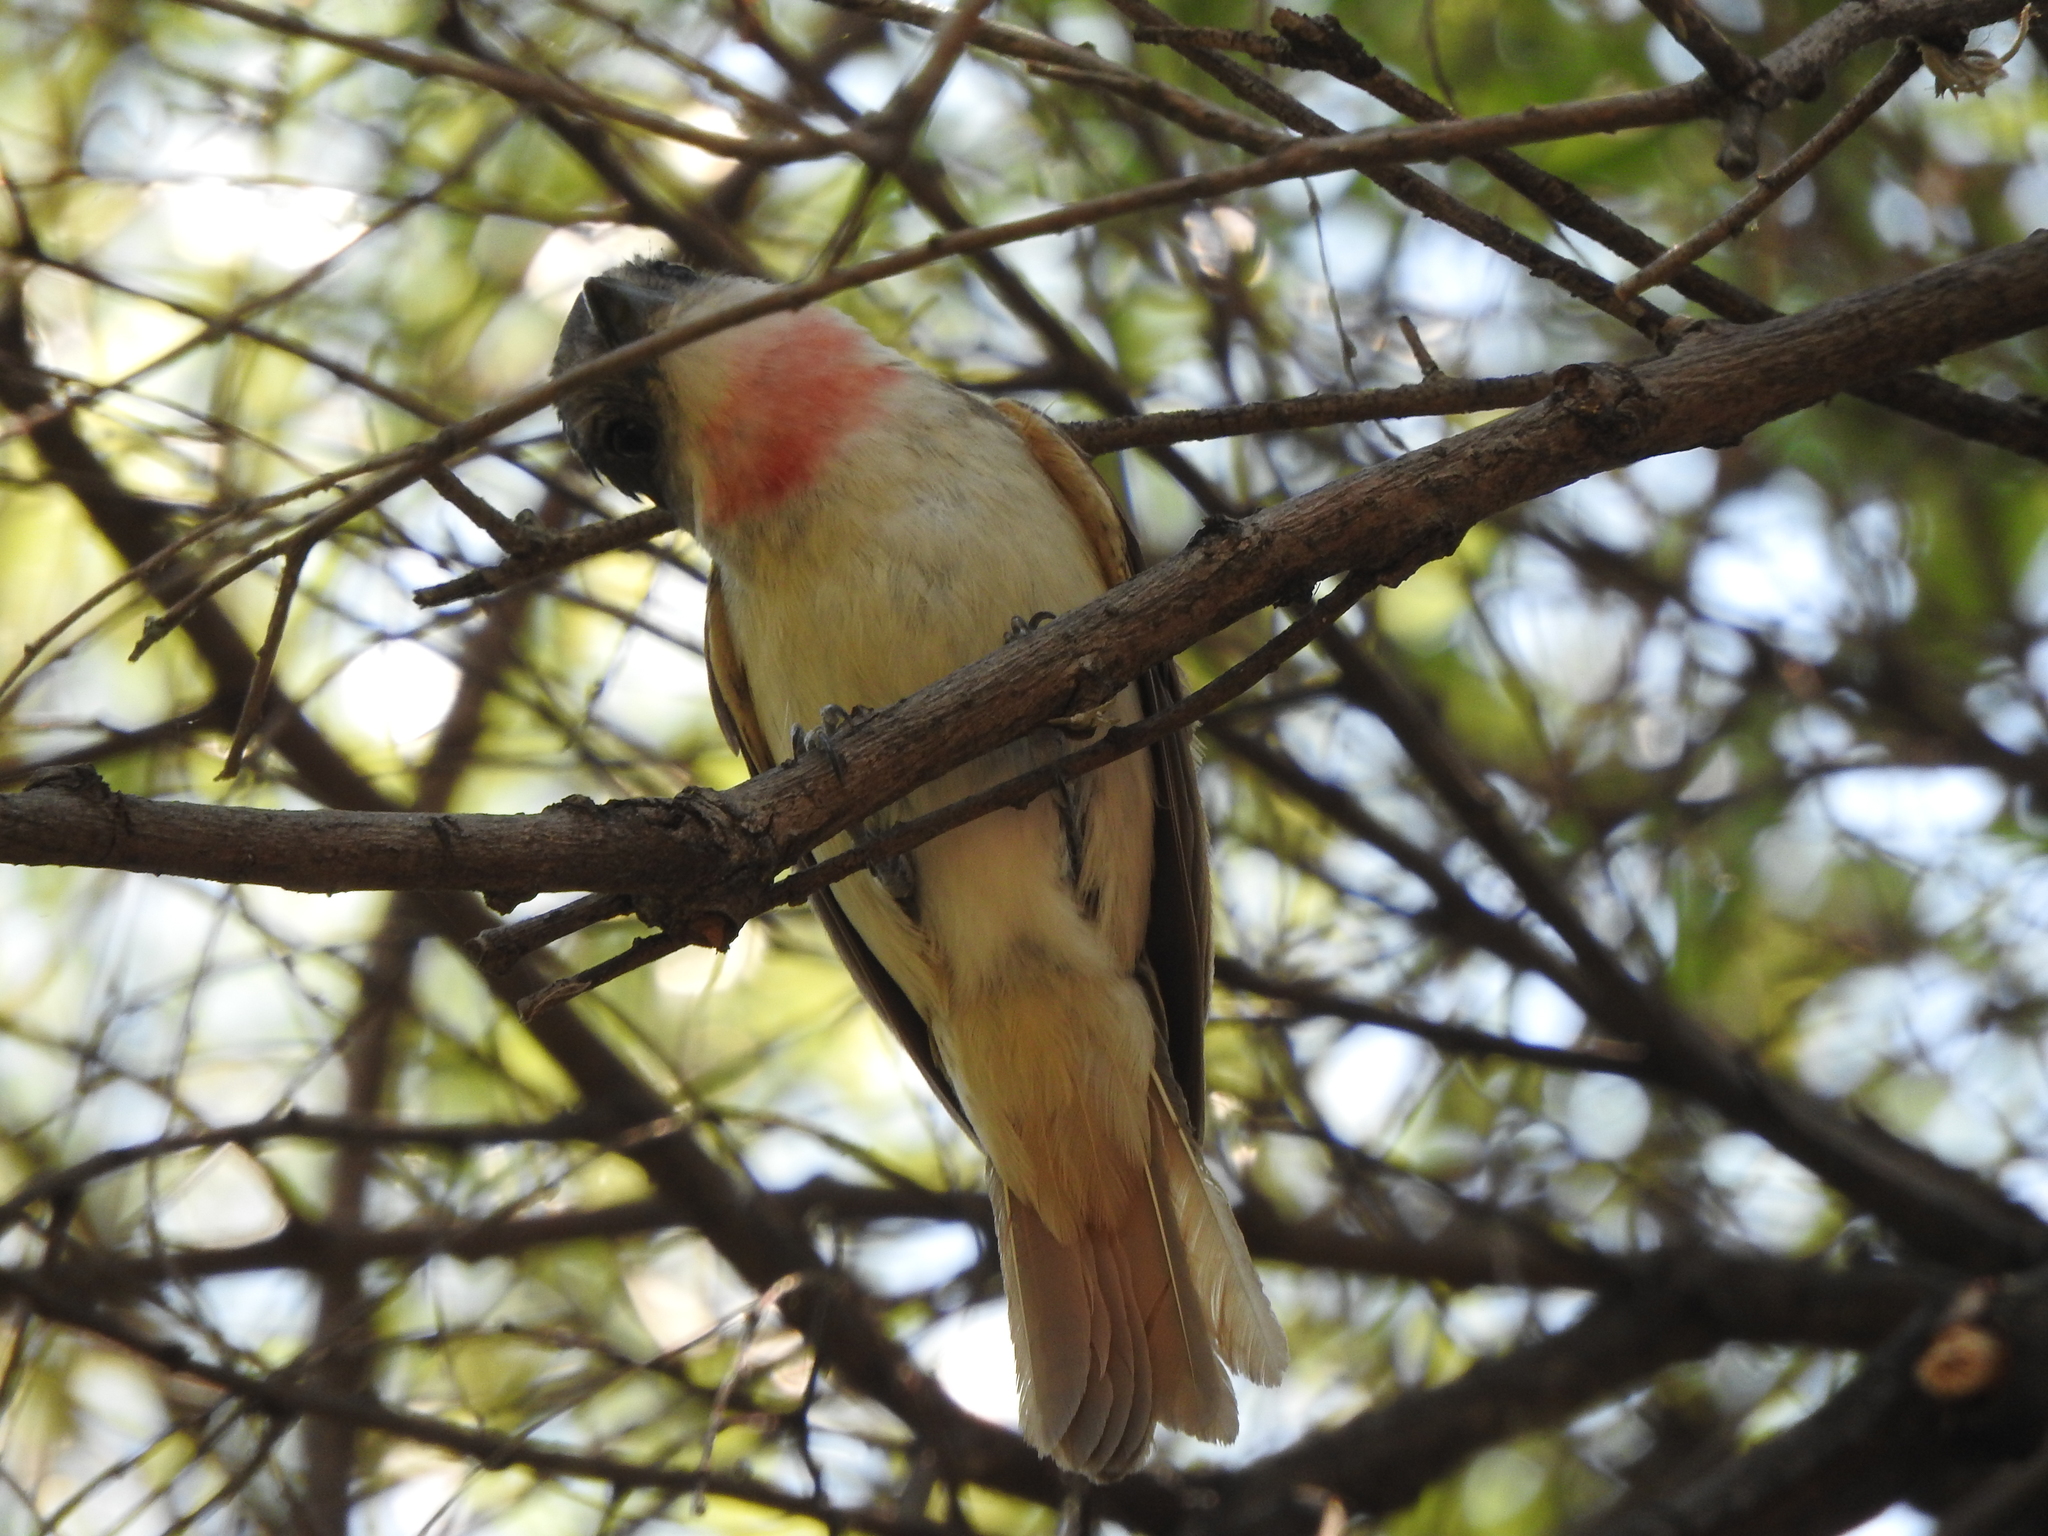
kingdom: Animalia
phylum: Chordata
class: Aves
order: Passeriformes
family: Cotingidae
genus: Pachyramphus
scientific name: Pachyramphus aglaiae
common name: Rose-throated becard
